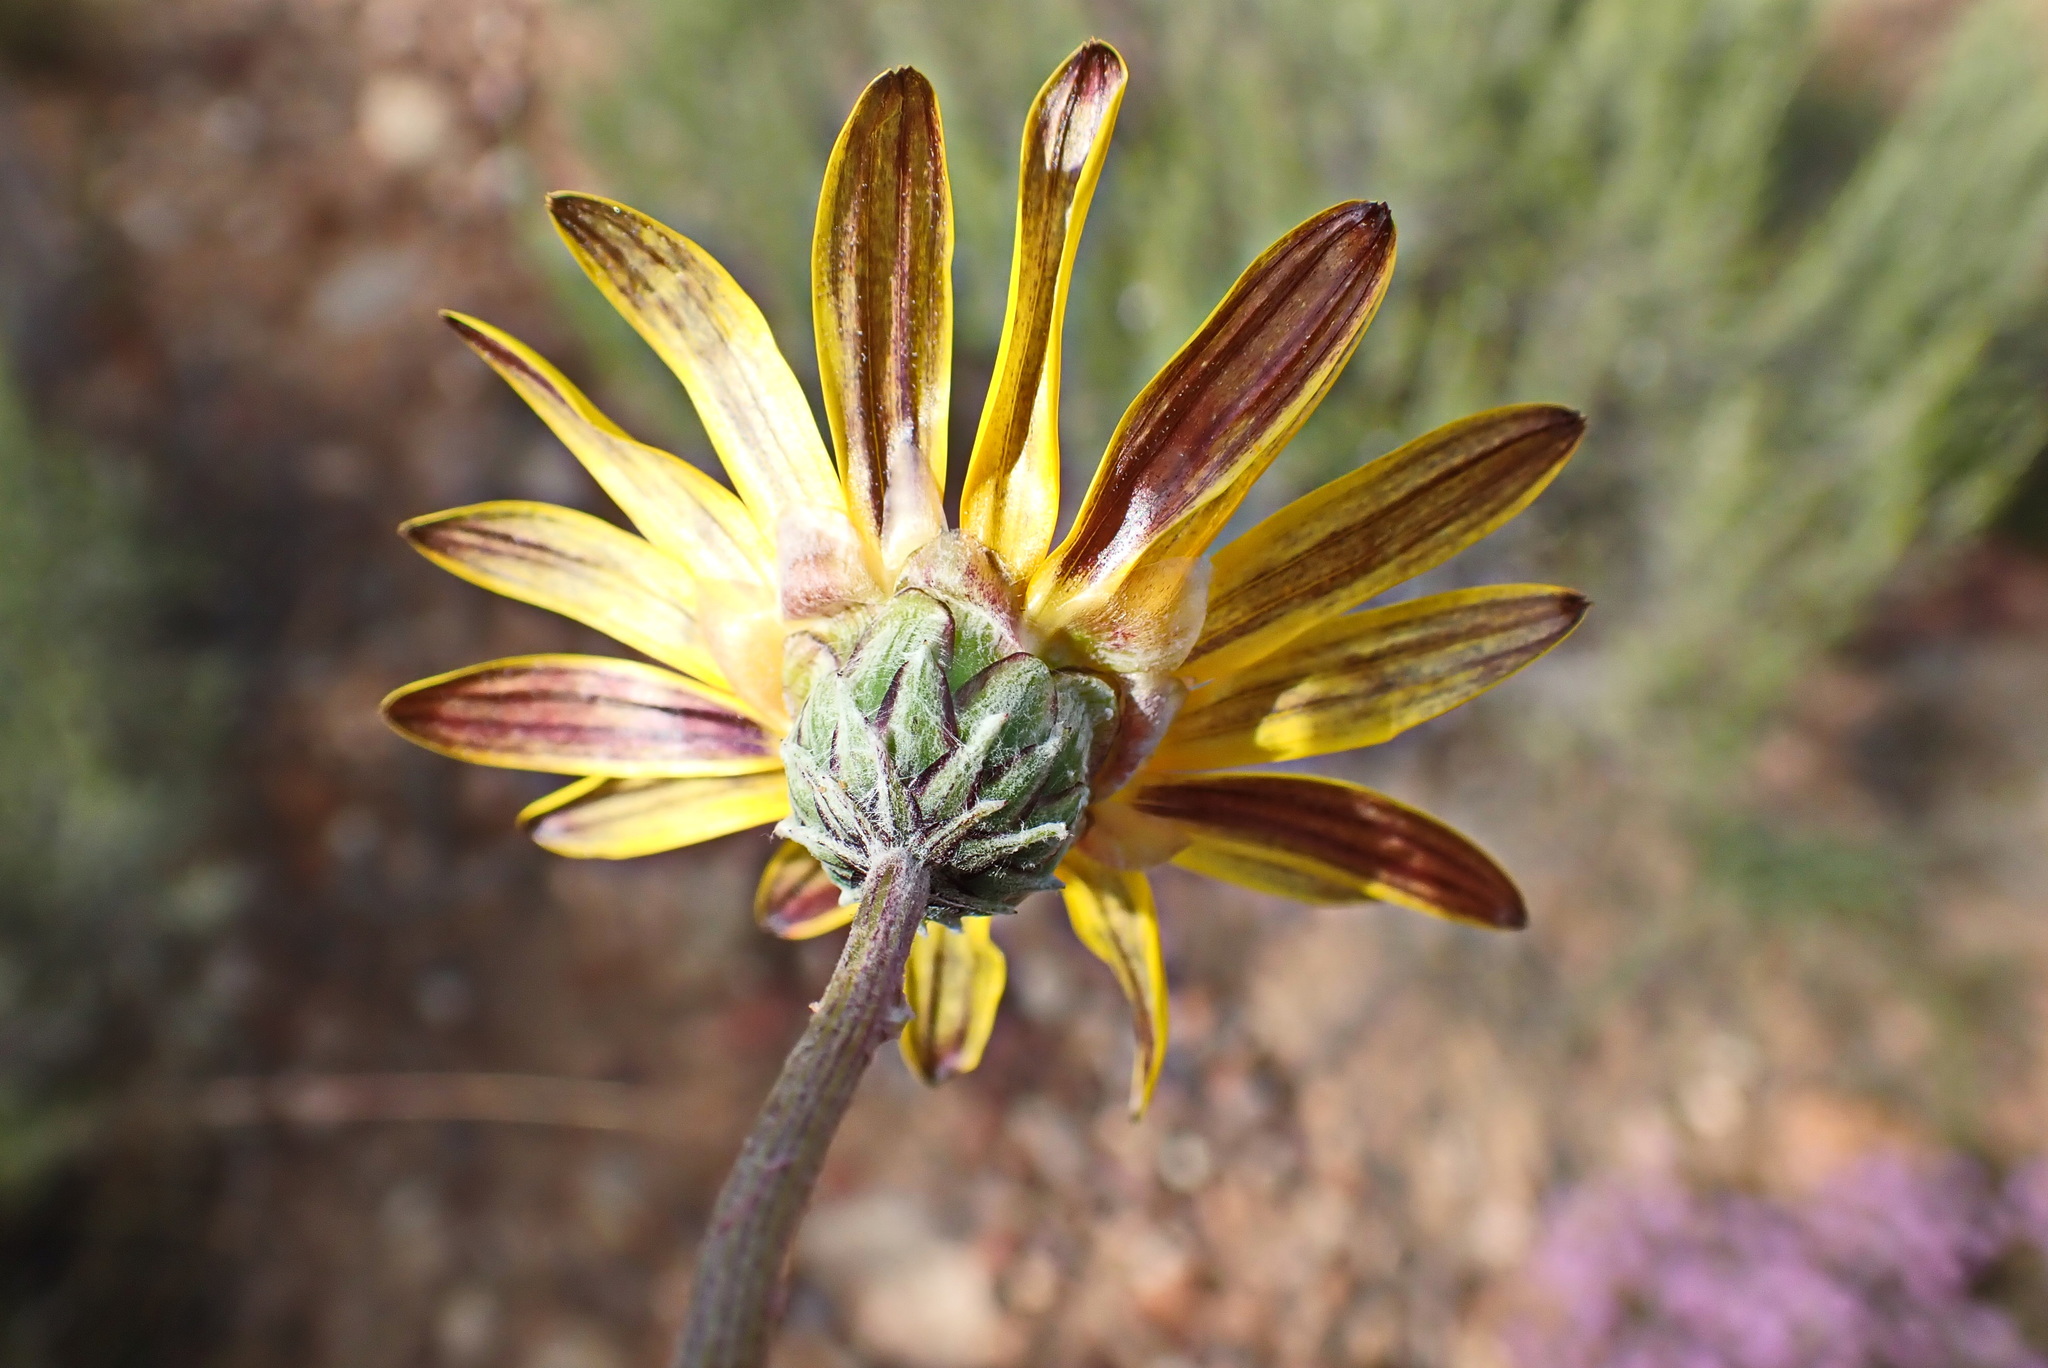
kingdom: Plantae
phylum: Tracheophyta
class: Magnoliopsida
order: Asterales
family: Asteraceae
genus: Arctotis
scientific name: Arctotis lanceolata
